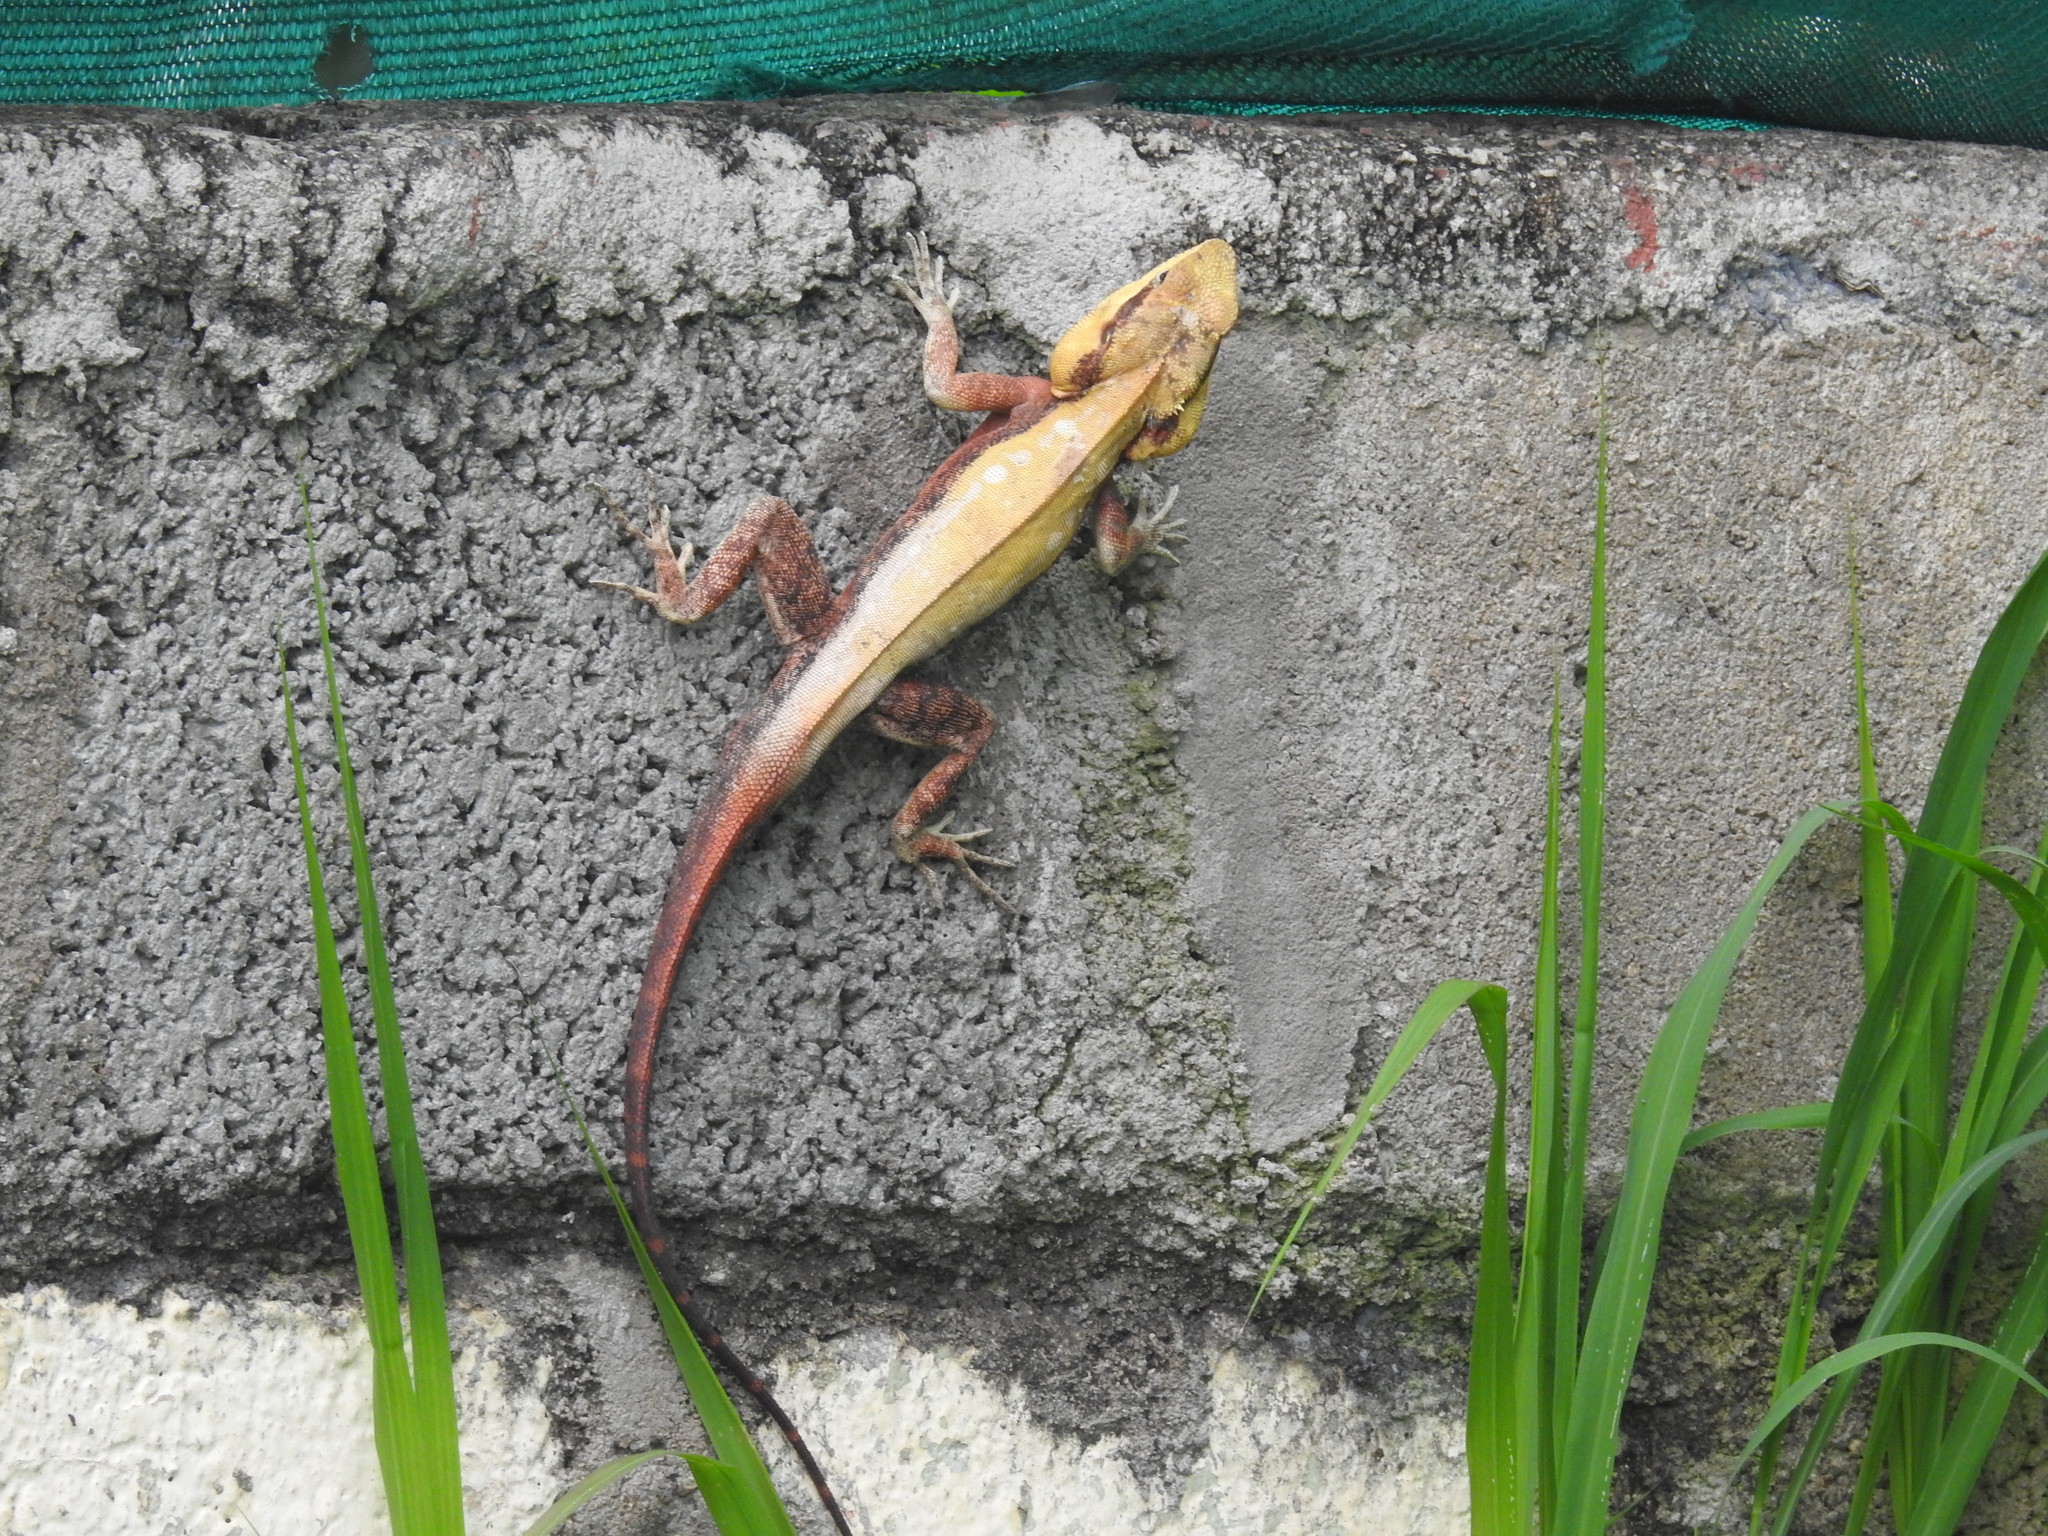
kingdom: Animalia
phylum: Chordata
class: Squamata
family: Agamidae
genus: Psammophilus
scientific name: Psammophilus dorsalis
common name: South indian rock agama
